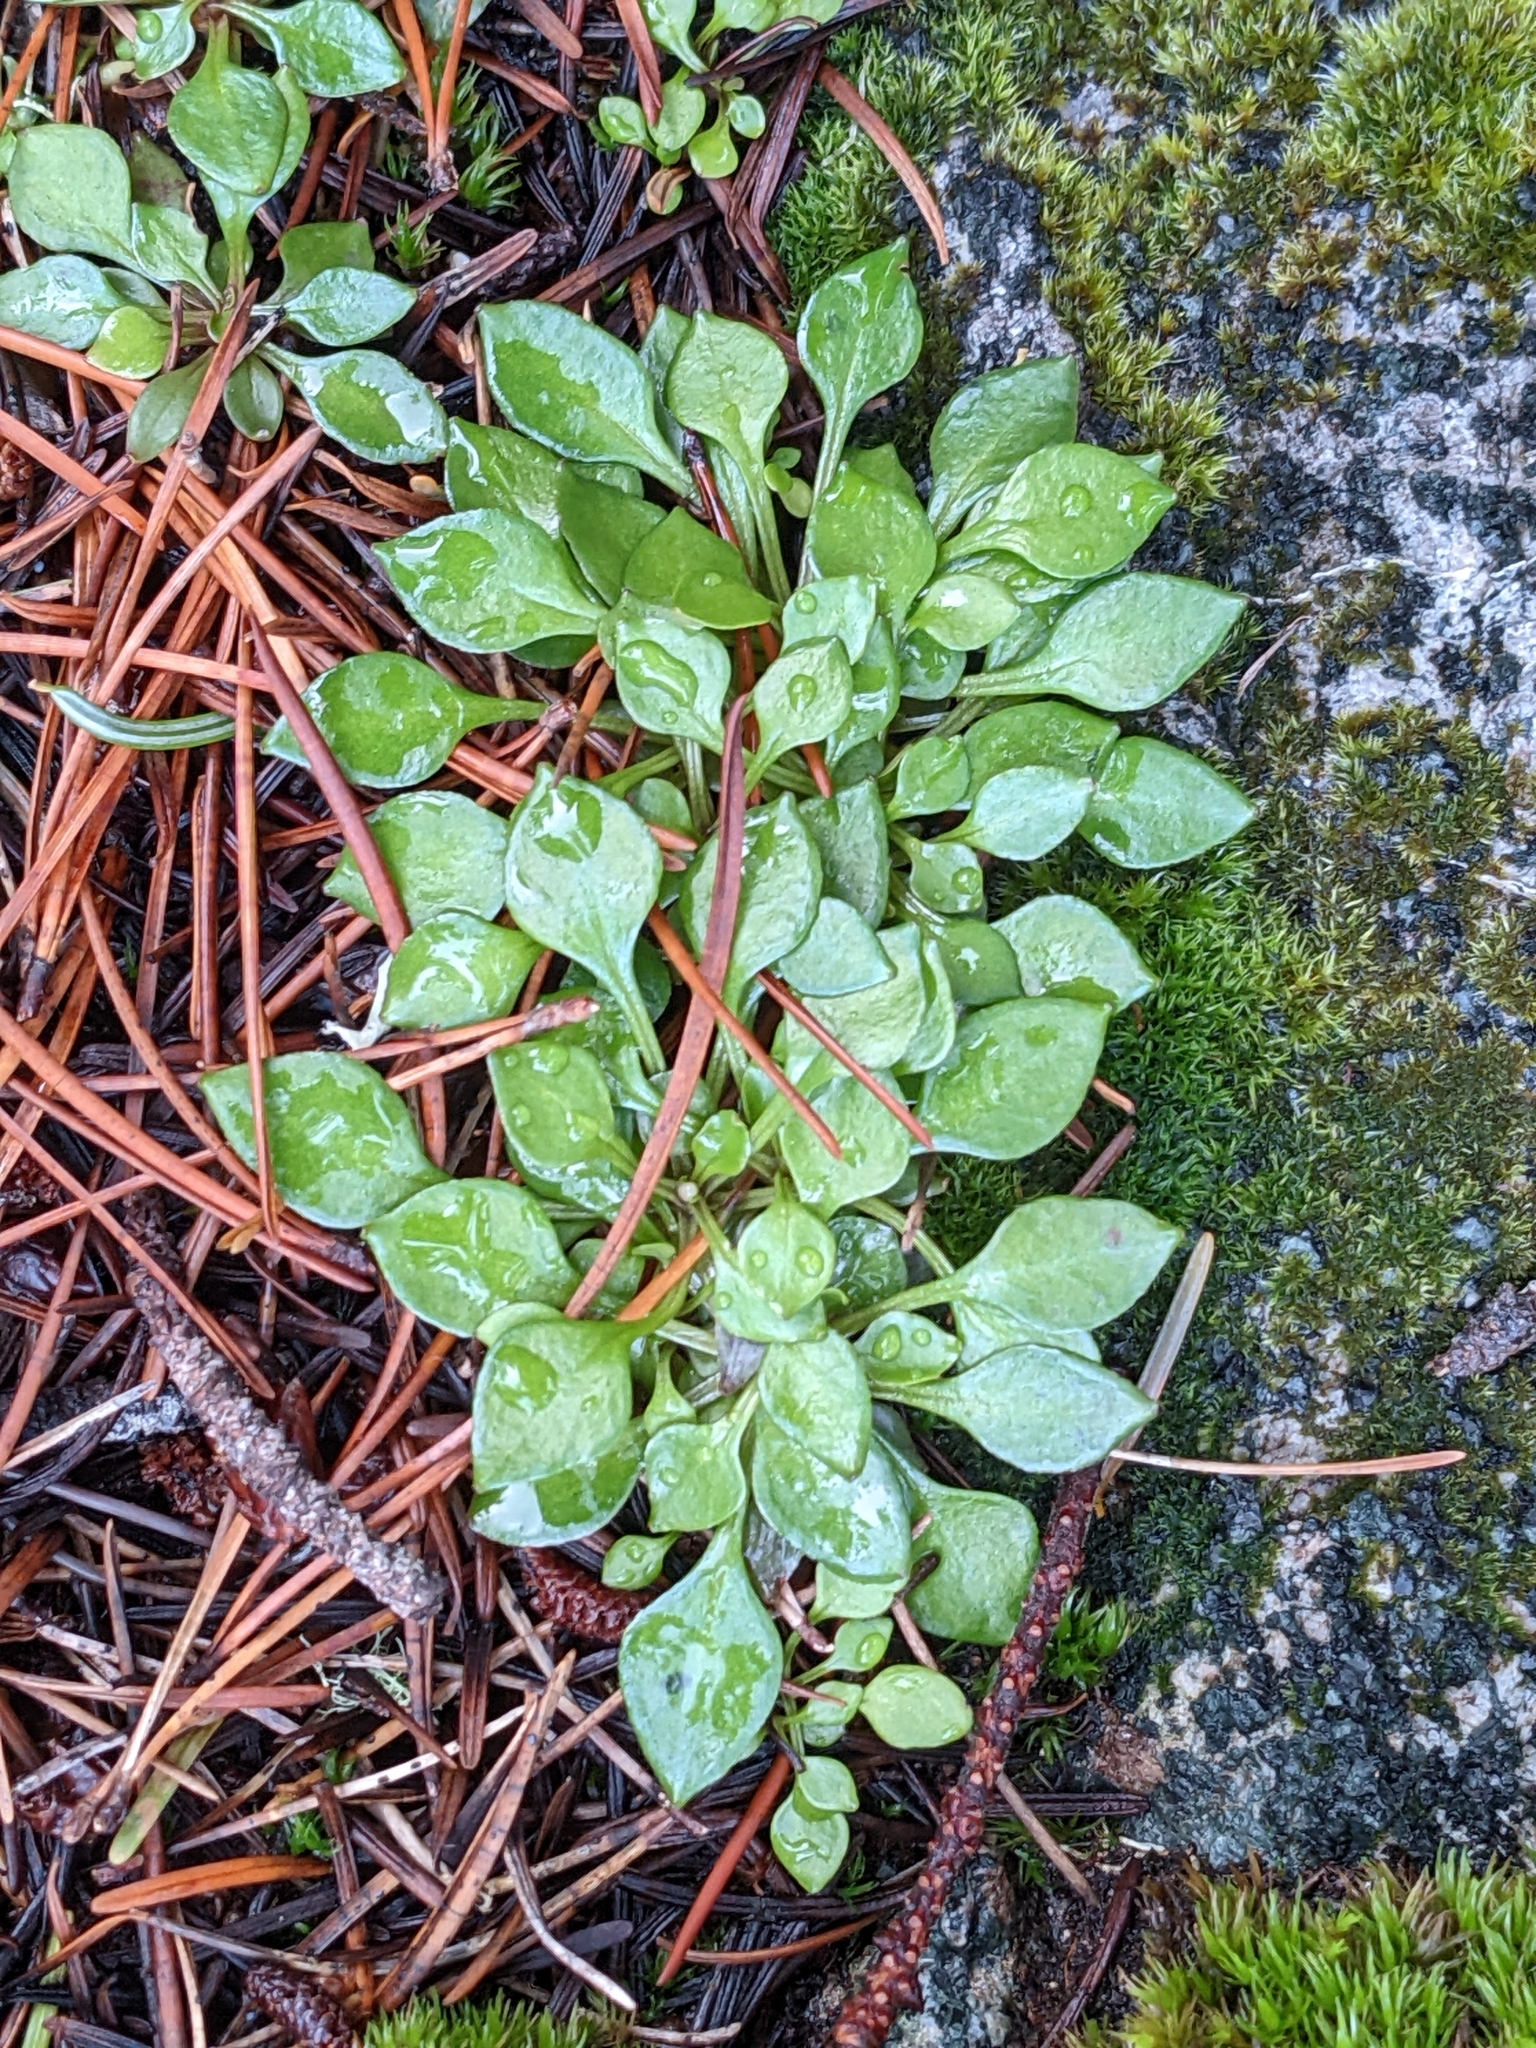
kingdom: Plantae
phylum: Tracheophyta
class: Magnoliopsida
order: Caryophyllales
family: Montiaceae
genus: Montia
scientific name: Montia parvifolia
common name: Small-leaved blinks
